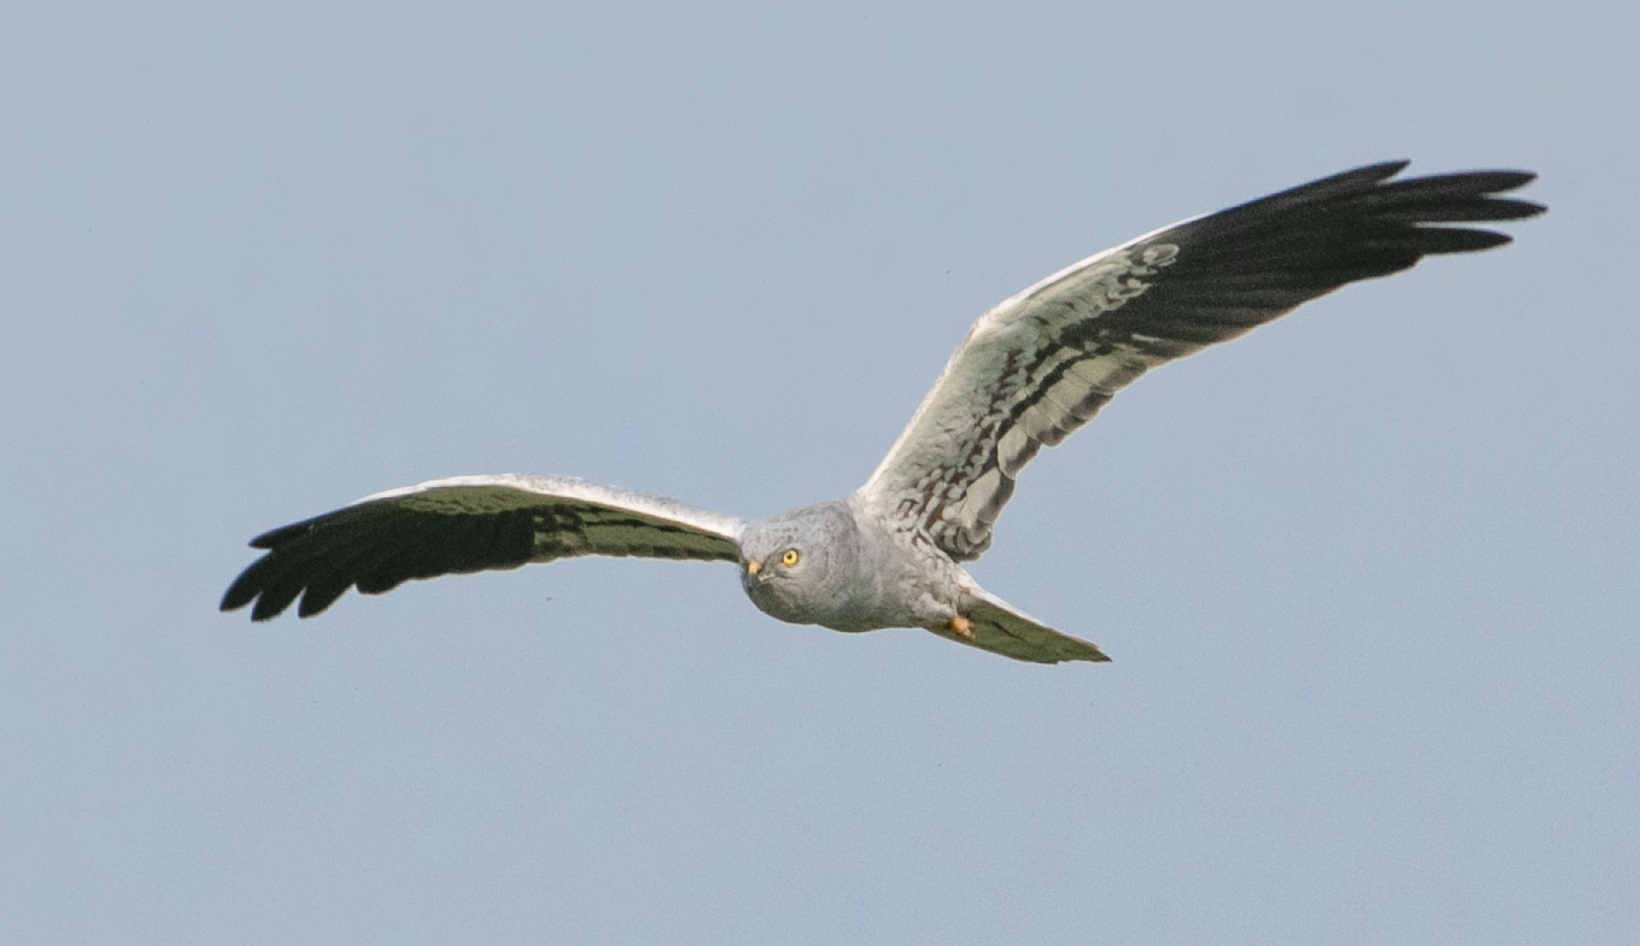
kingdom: Animalia
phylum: Chordata
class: Aves
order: Accipitriformes
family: Accipitridae
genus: Circus
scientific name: Circus pygargus
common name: Montagu's harrier
